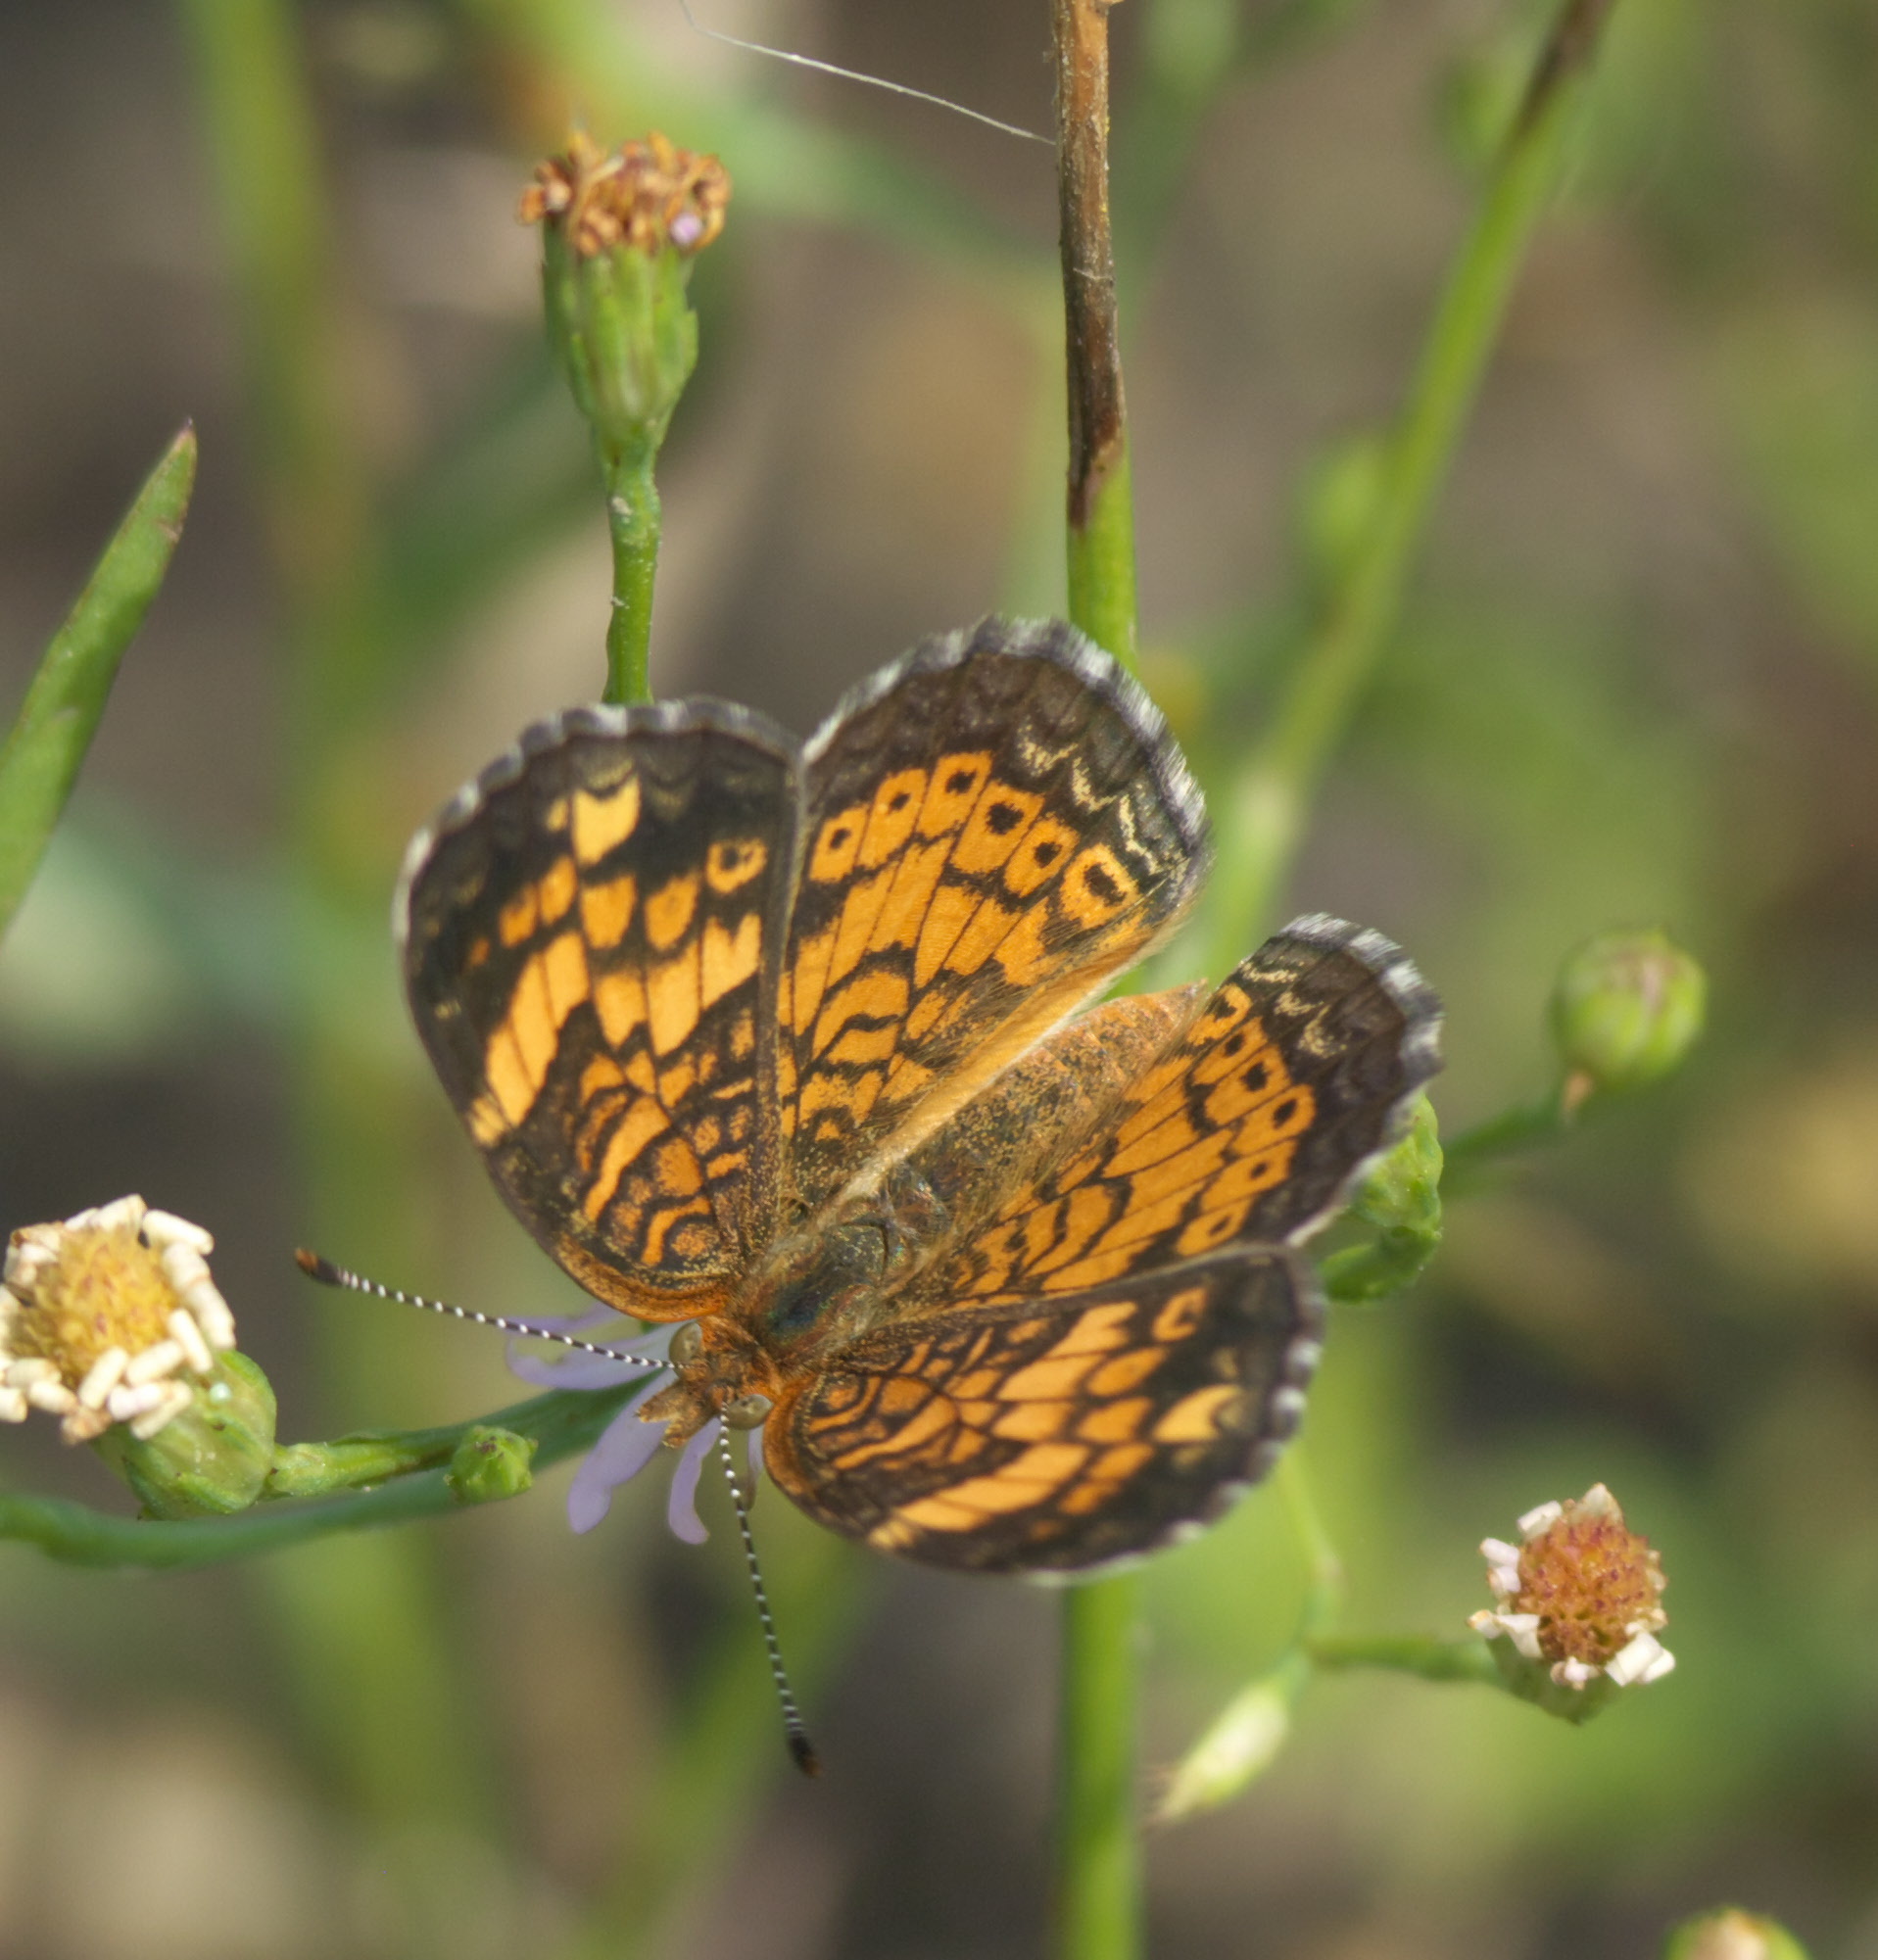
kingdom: Animalia
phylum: Arthropoda
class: Insecta
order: Lepidoptera
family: Nymphalidae
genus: Phyciodes
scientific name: Phyciodes tharos
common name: Pearl crescent
